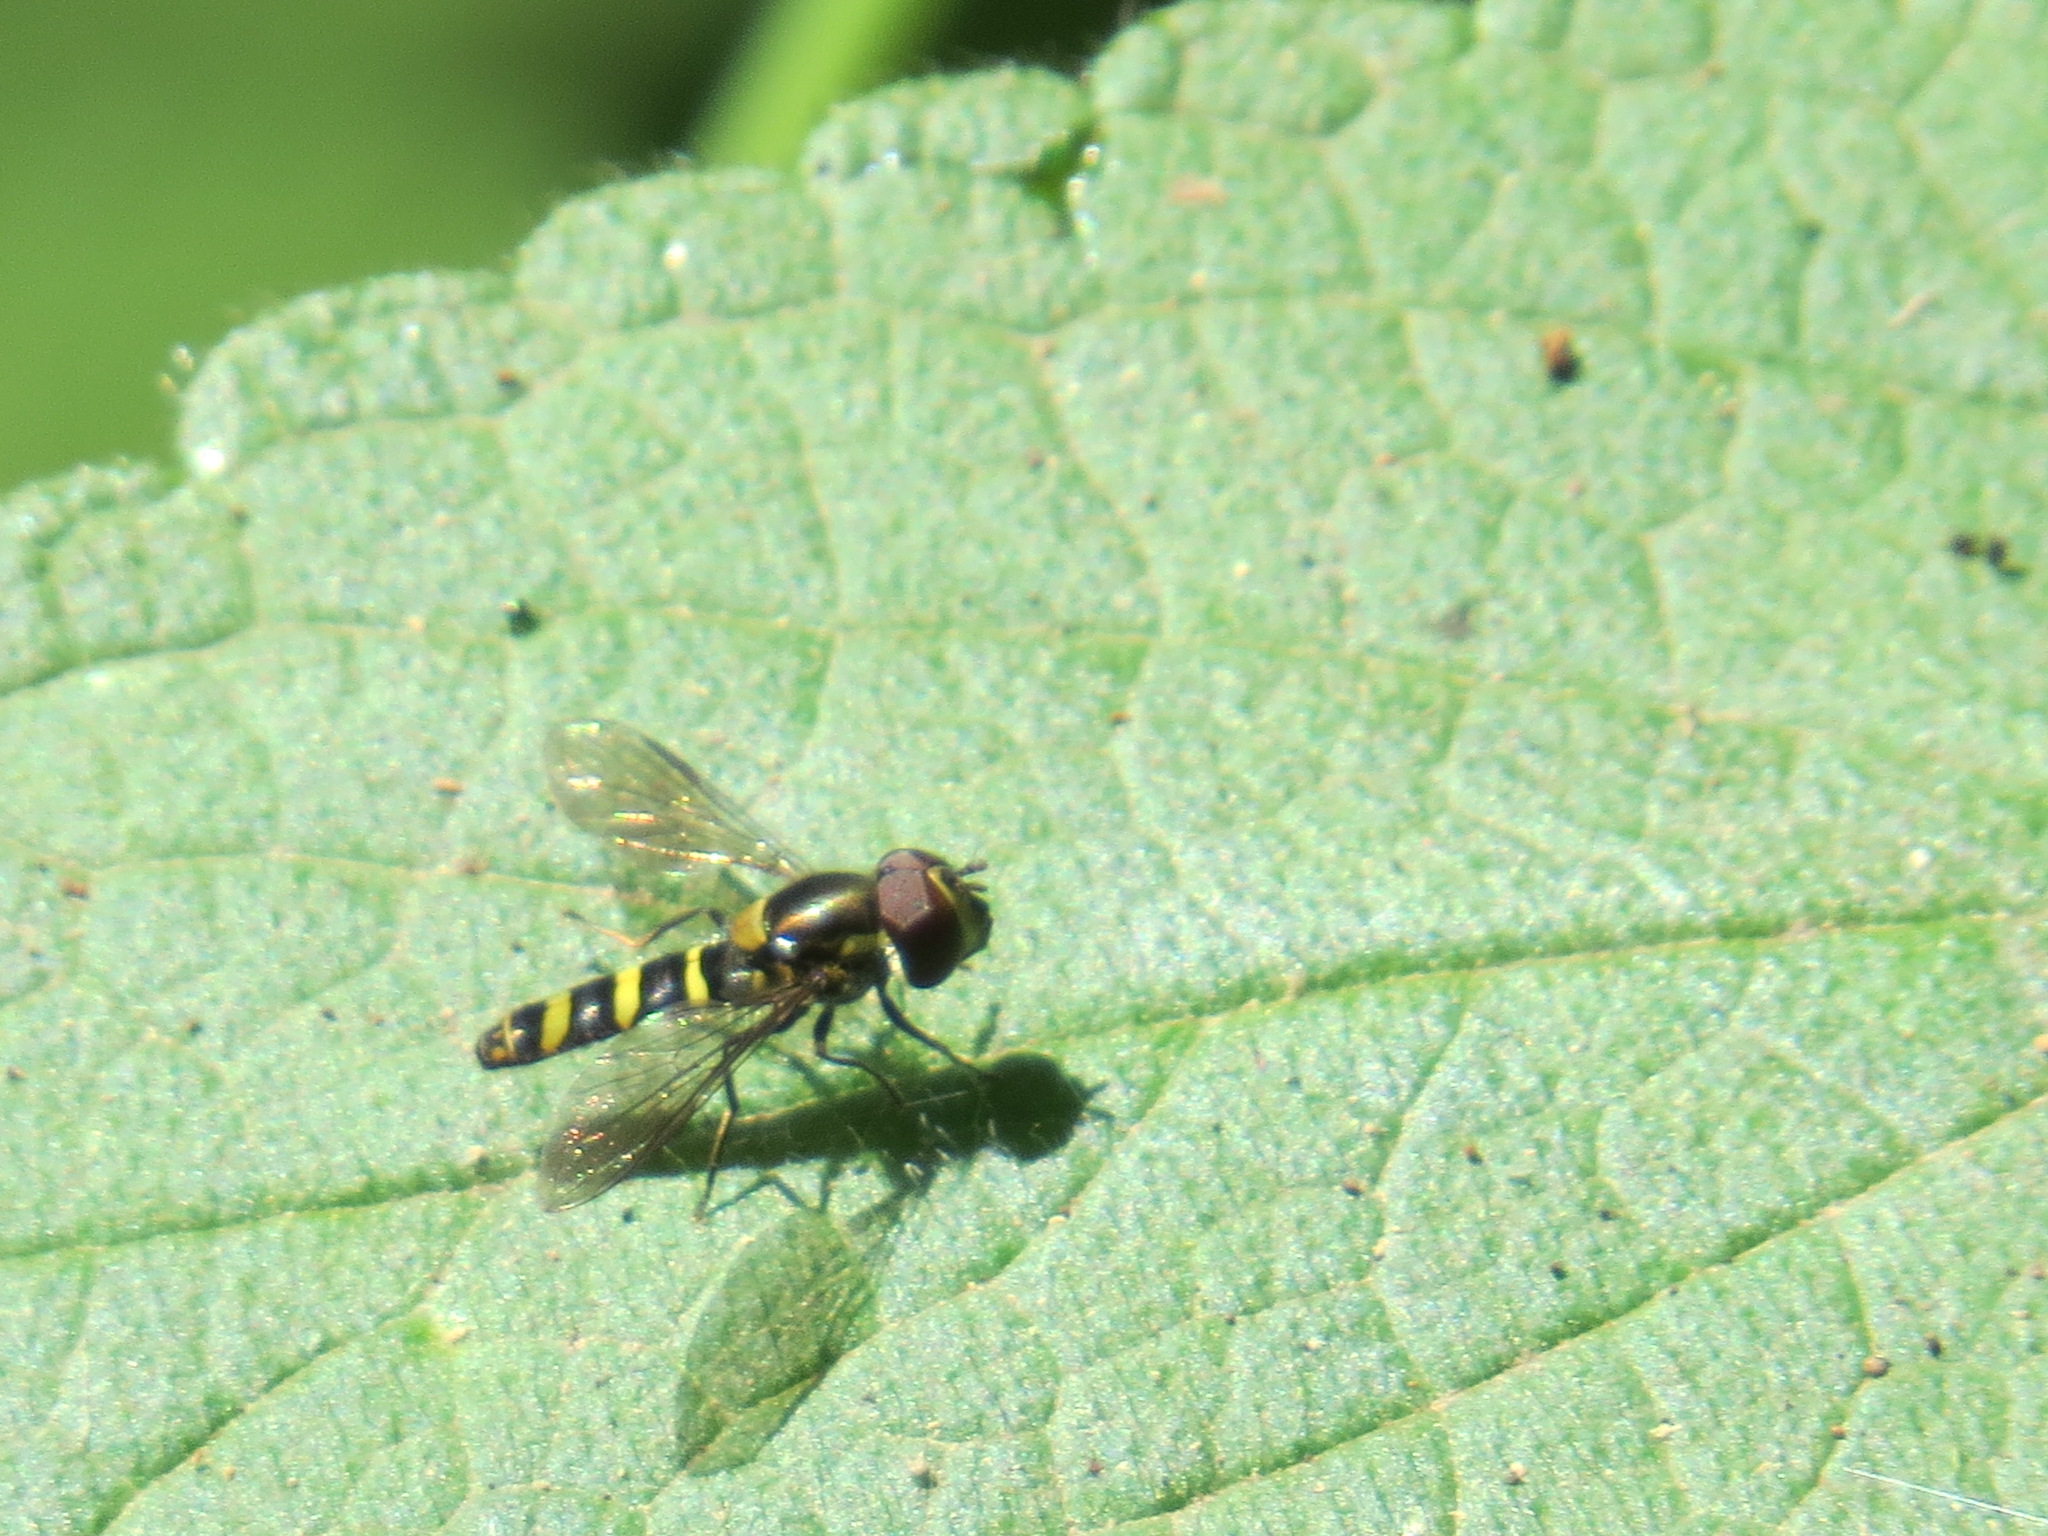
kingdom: Animalia
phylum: Arthropoda
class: Insecta
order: Diptera
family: Syrphidae
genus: Fazia
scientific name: Fazia micrura
